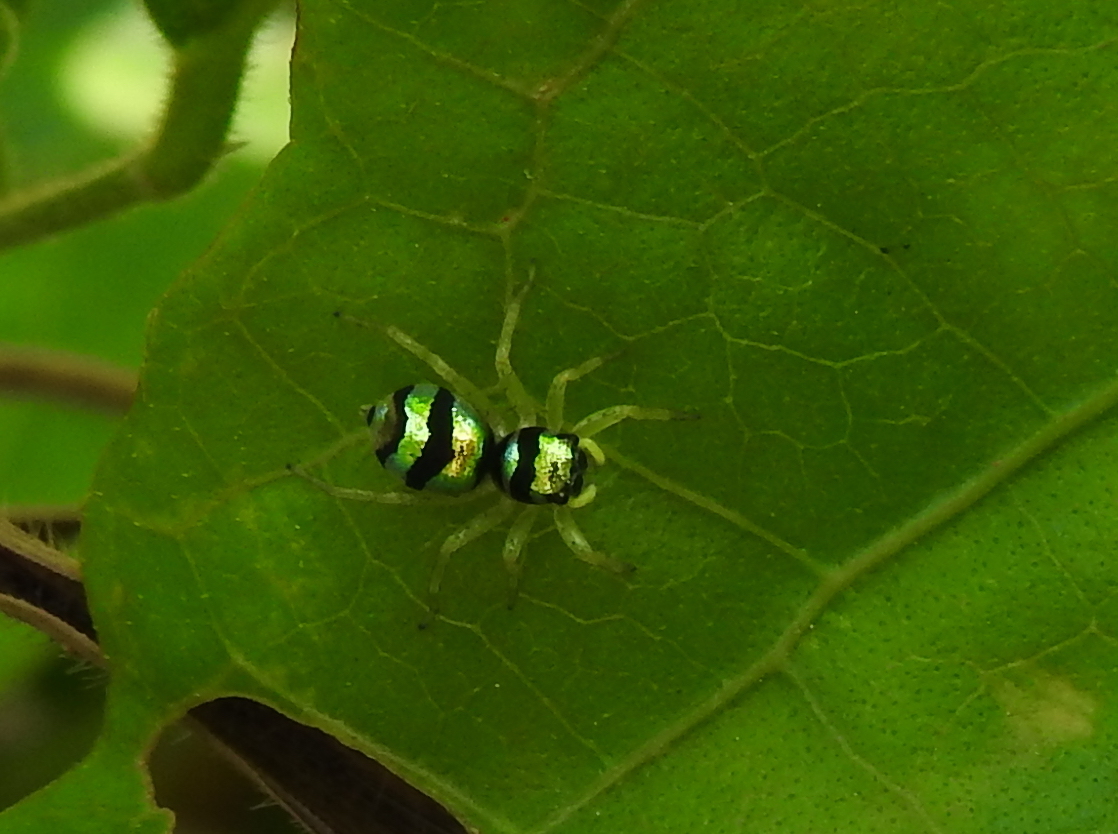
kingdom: Animalia
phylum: Arthropoda
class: Arachnida
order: Araneae
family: Salticidae
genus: Phintella
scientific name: Phintella vittata
